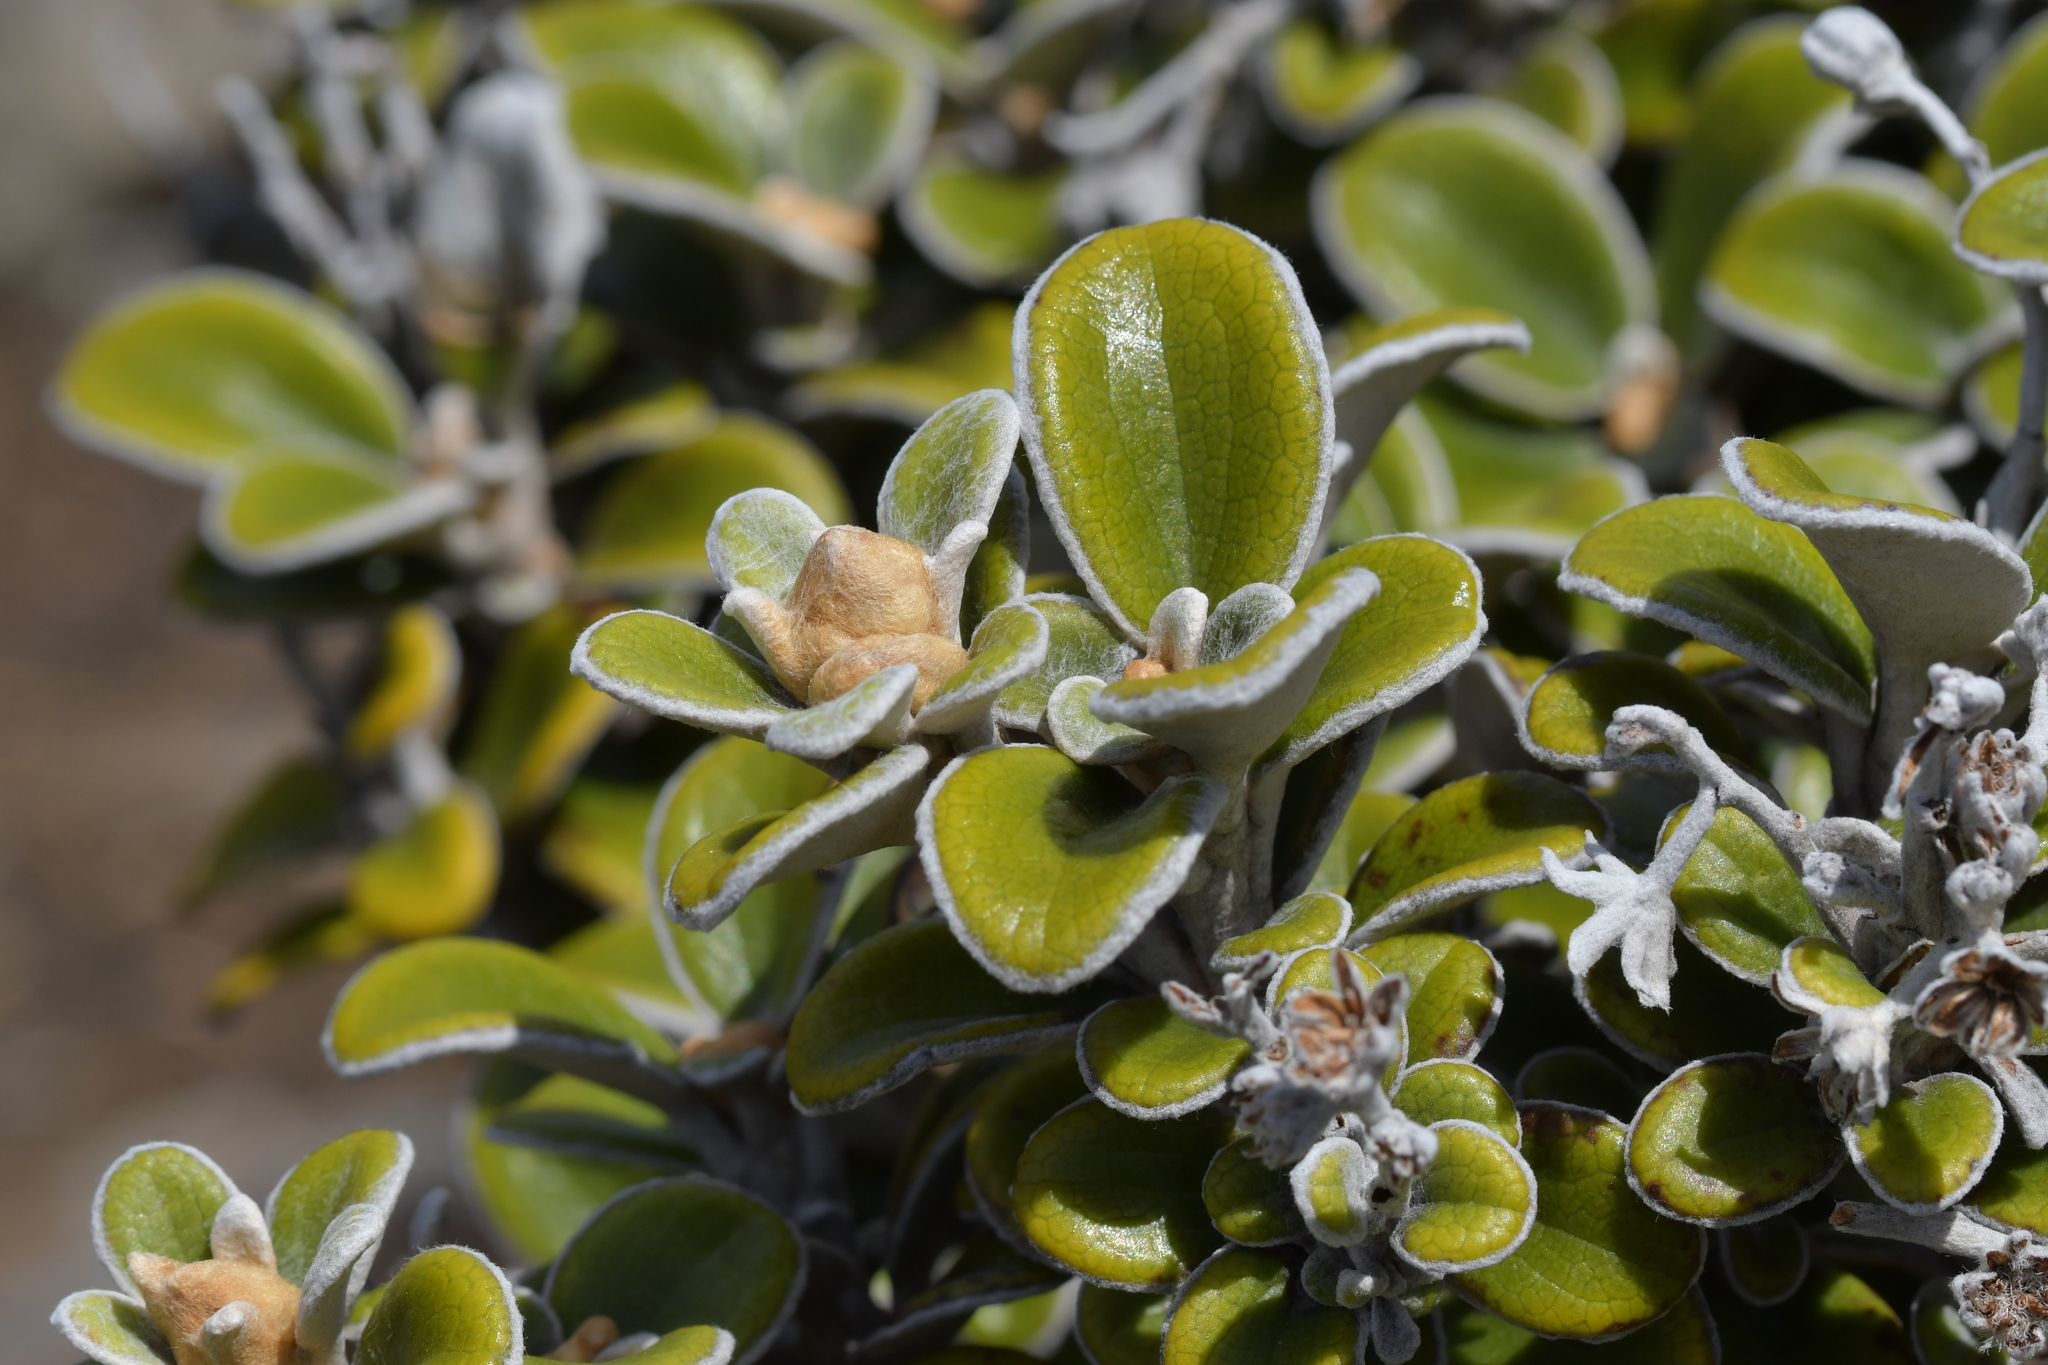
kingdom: Plantae
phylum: Tracheophyta
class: Magnoliopsida
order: Asterales
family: Asteraceae
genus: Brachyglottis
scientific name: Brachyglottis bidwillii
